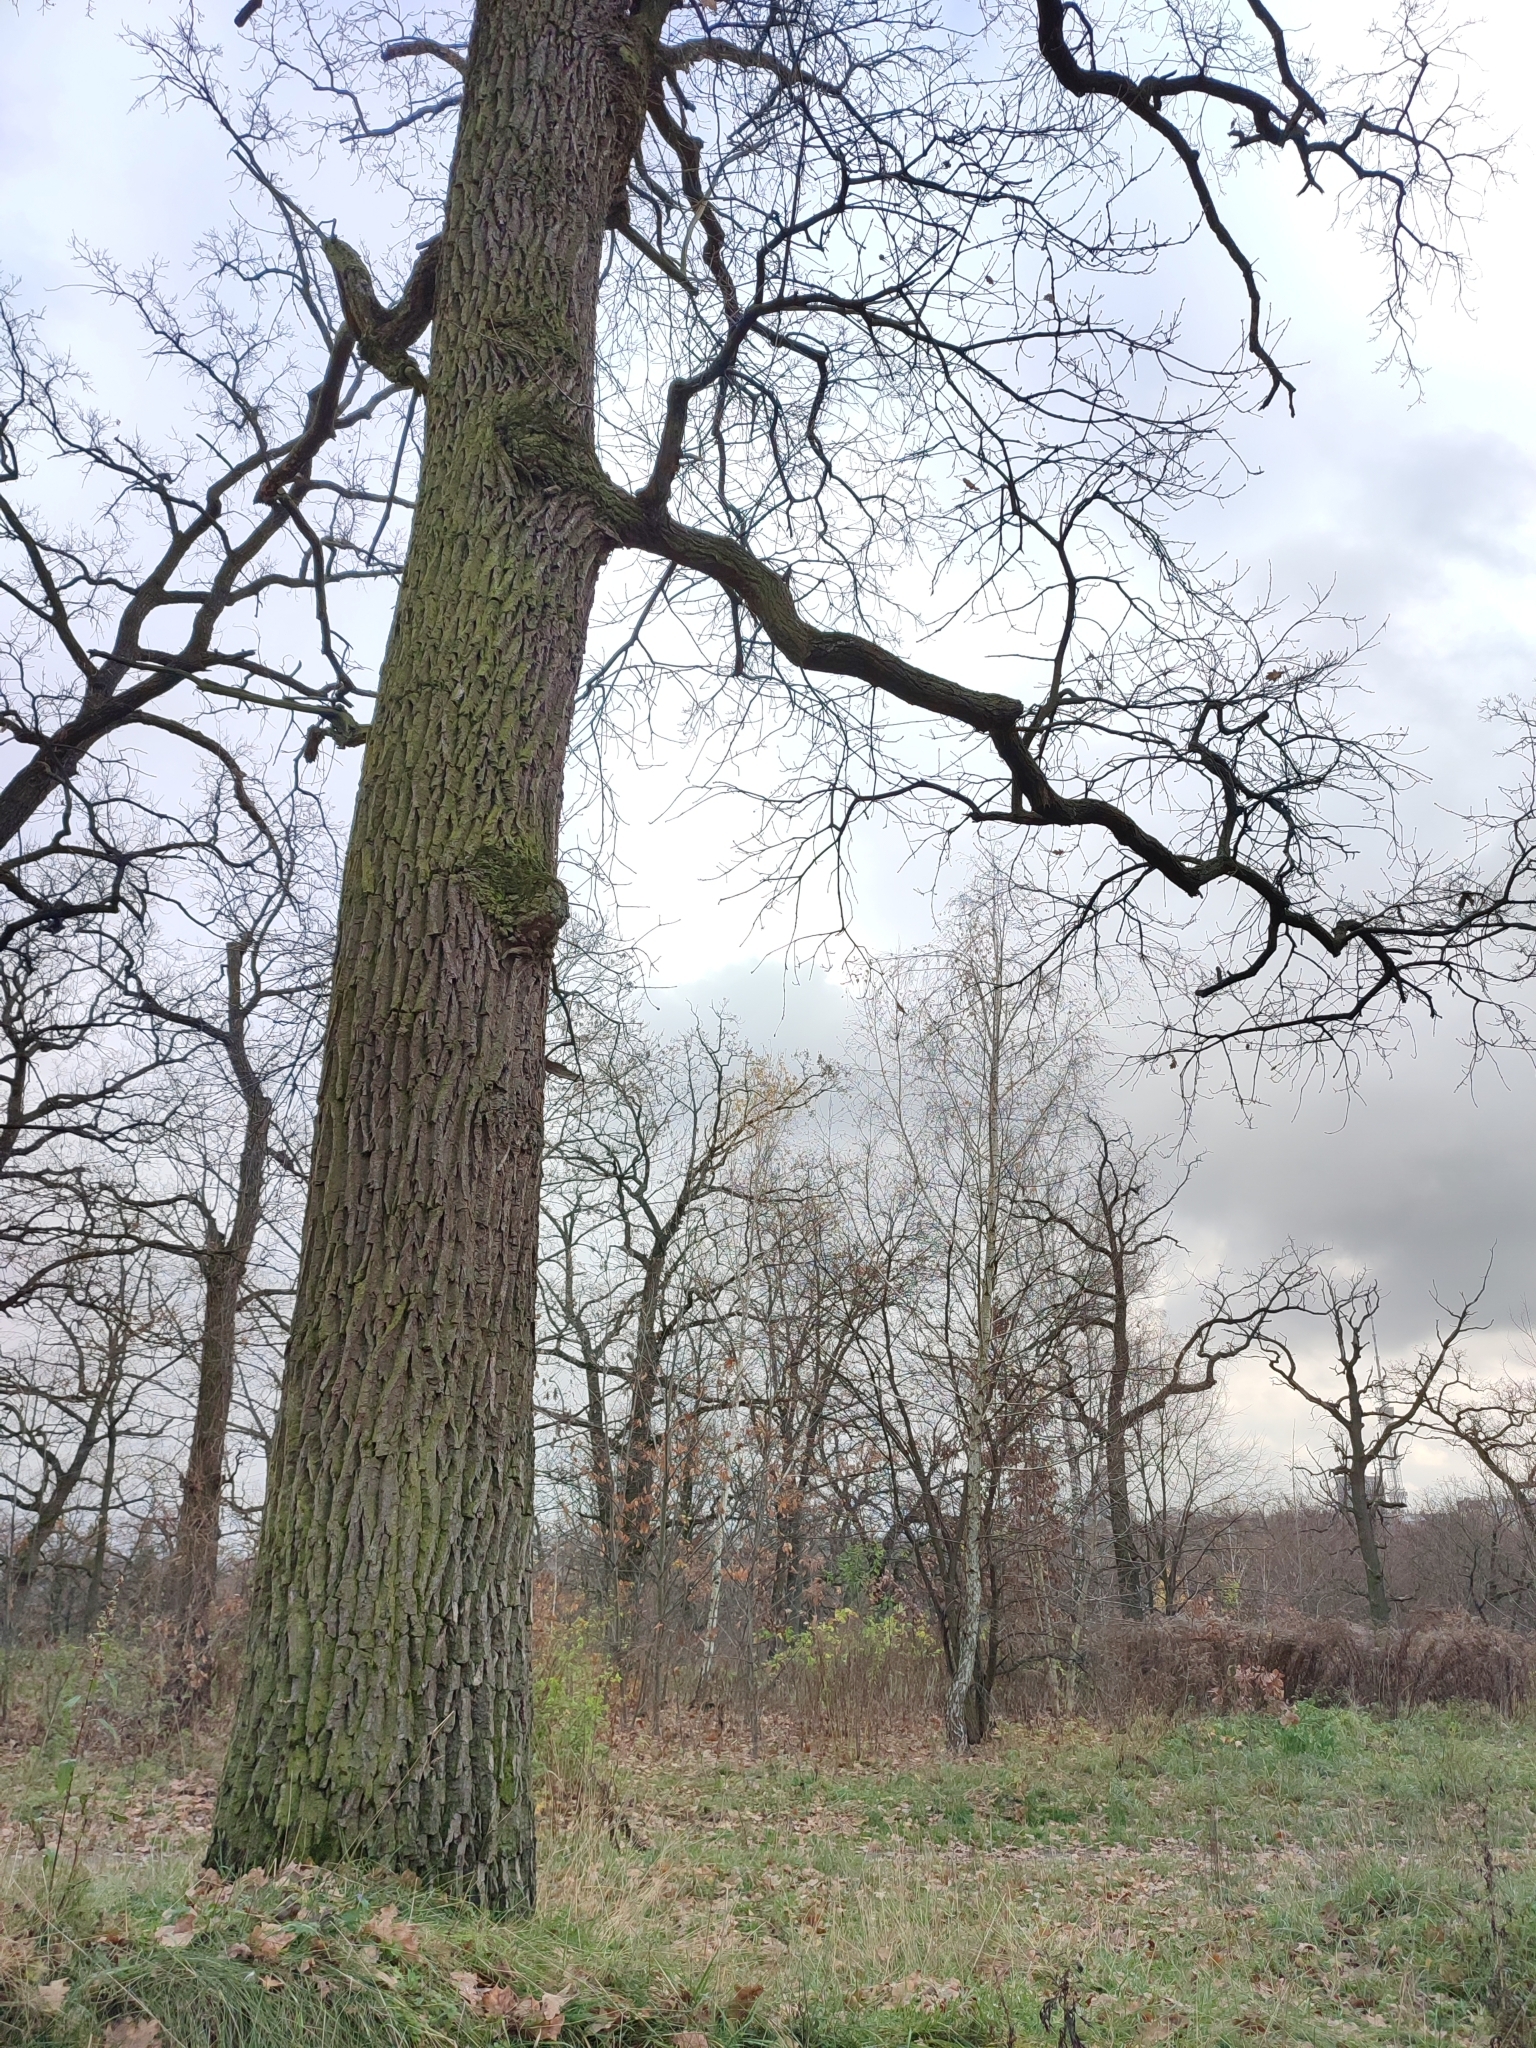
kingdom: Plantae
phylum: Tracheophyta
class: Magnoliopsida
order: Fagales
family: Fagaceae
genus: Quercus
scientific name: Quercus robur
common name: Pedunculate oak
